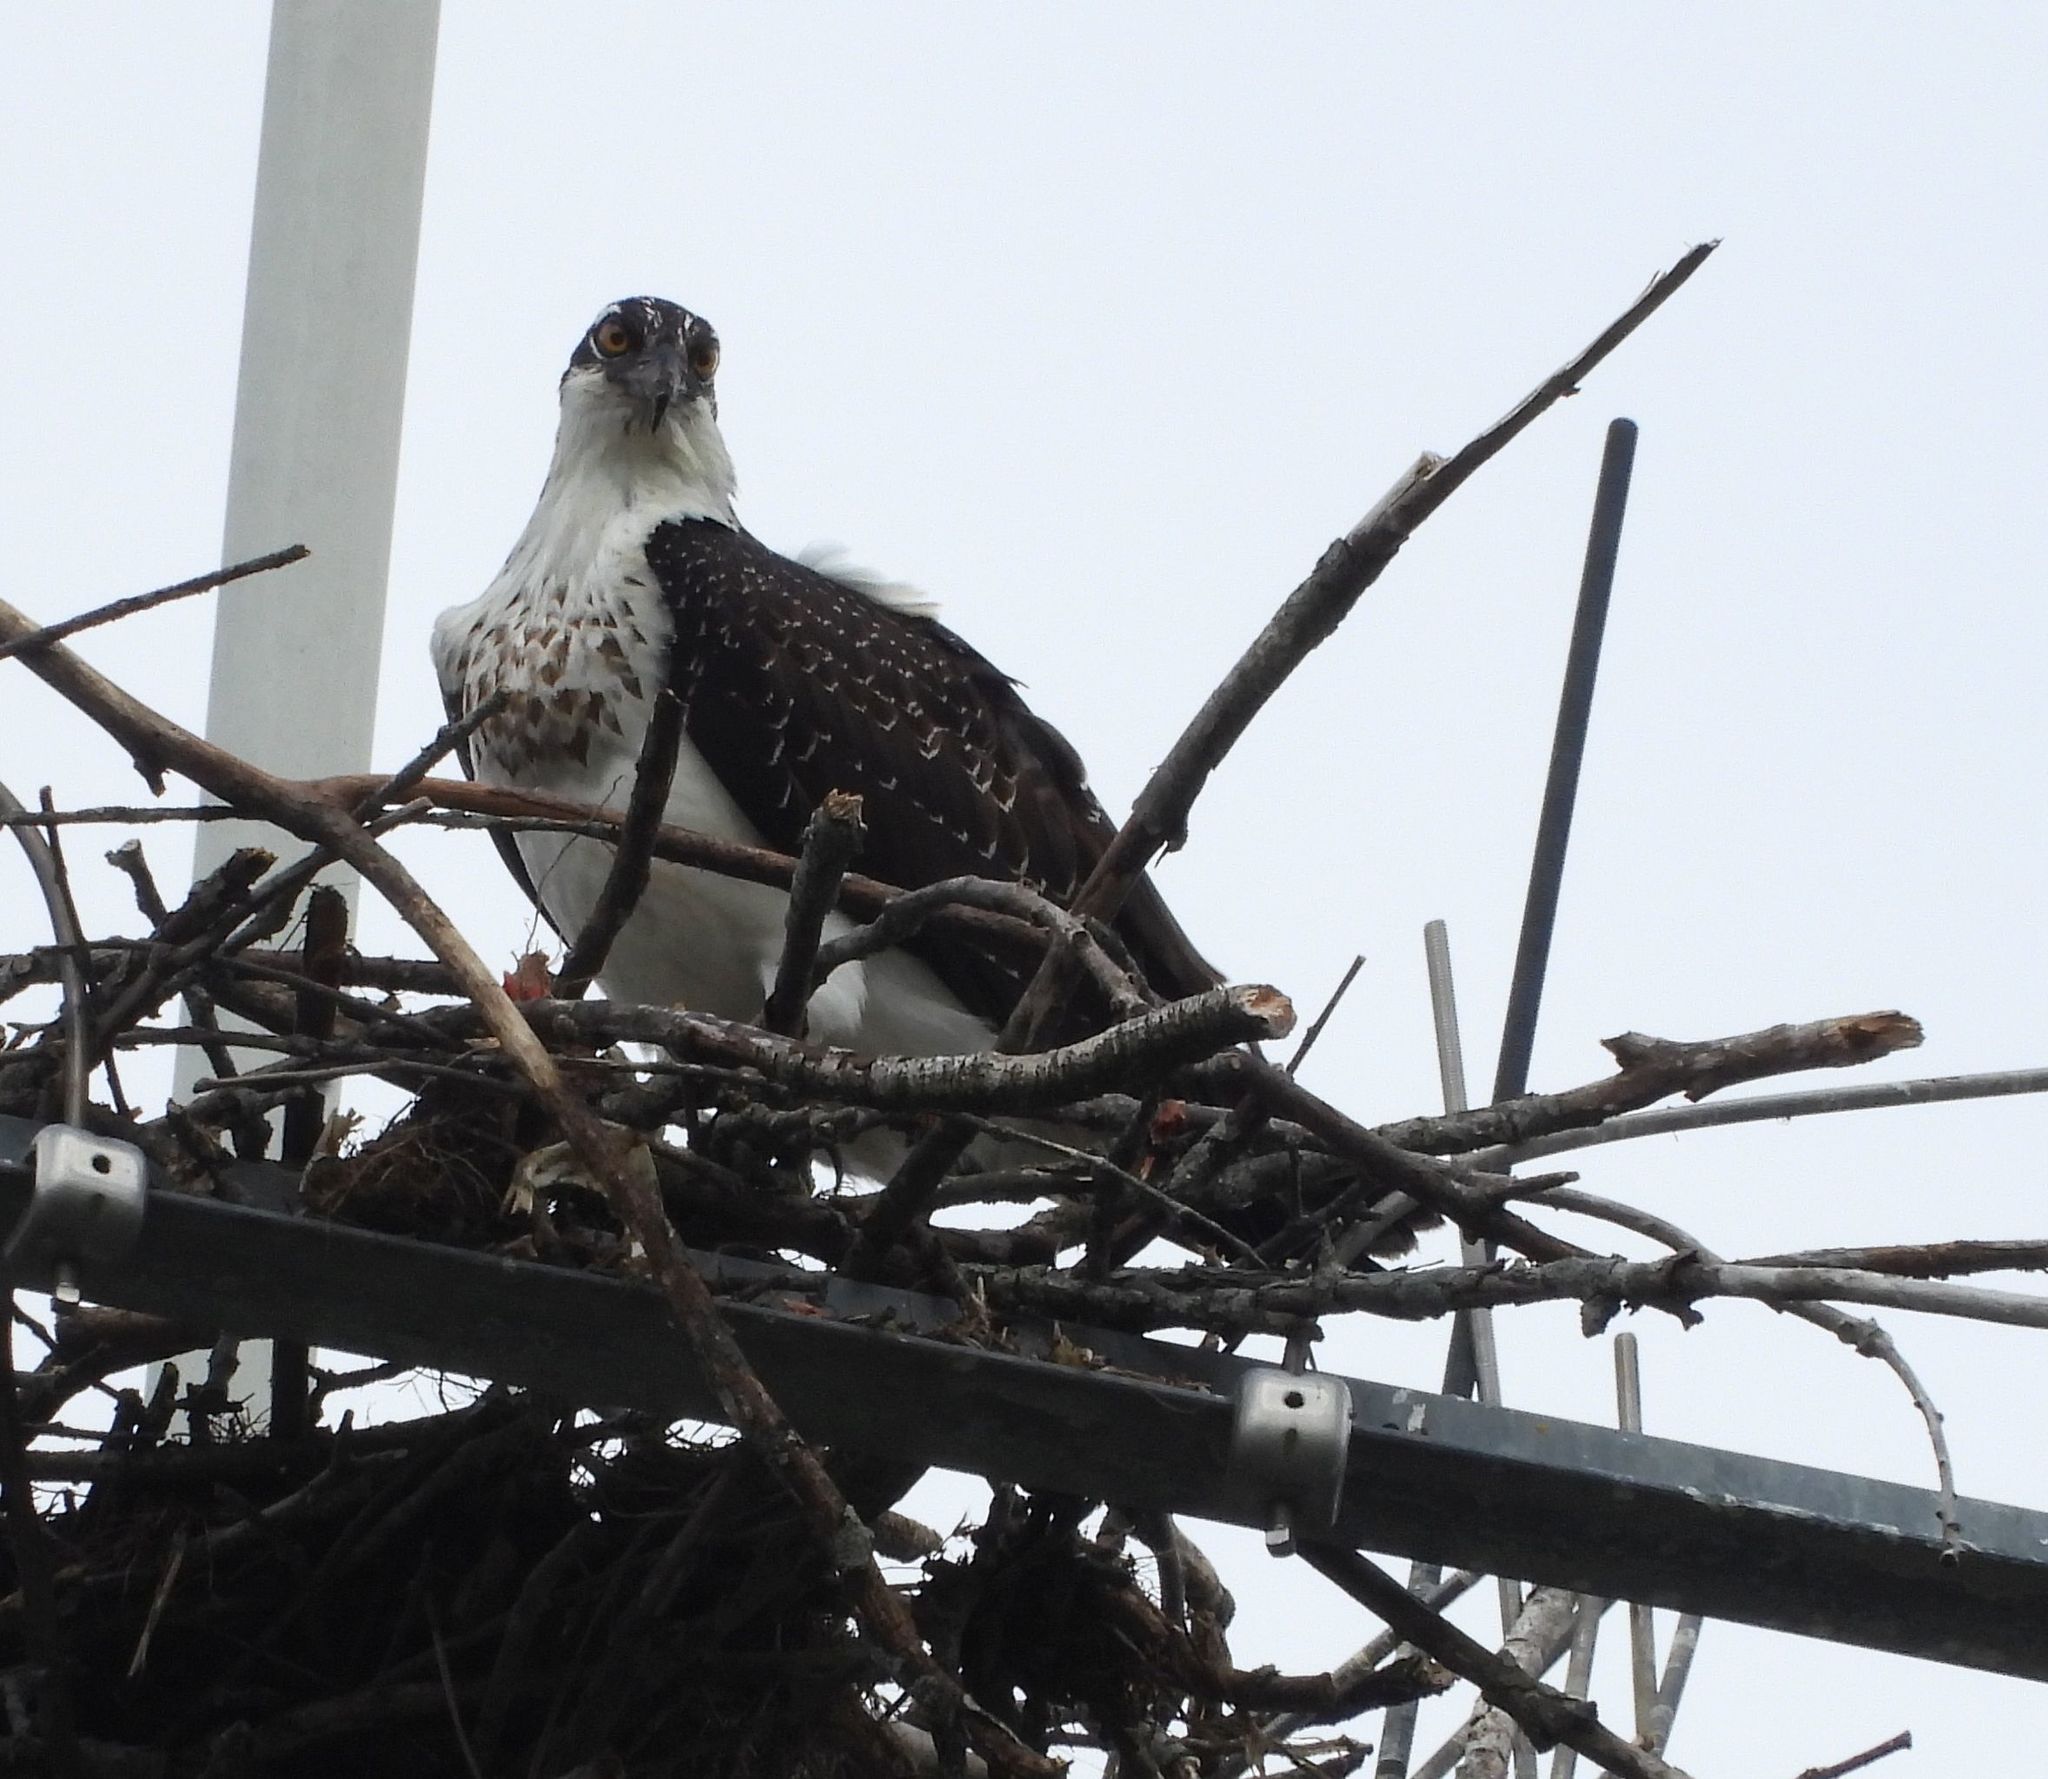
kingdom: Animalia
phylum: Chordata
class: Aves
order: Accipitriformes
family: Pandionidae
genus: Pandion
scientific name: Pandion haliaetus
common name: Osprey
